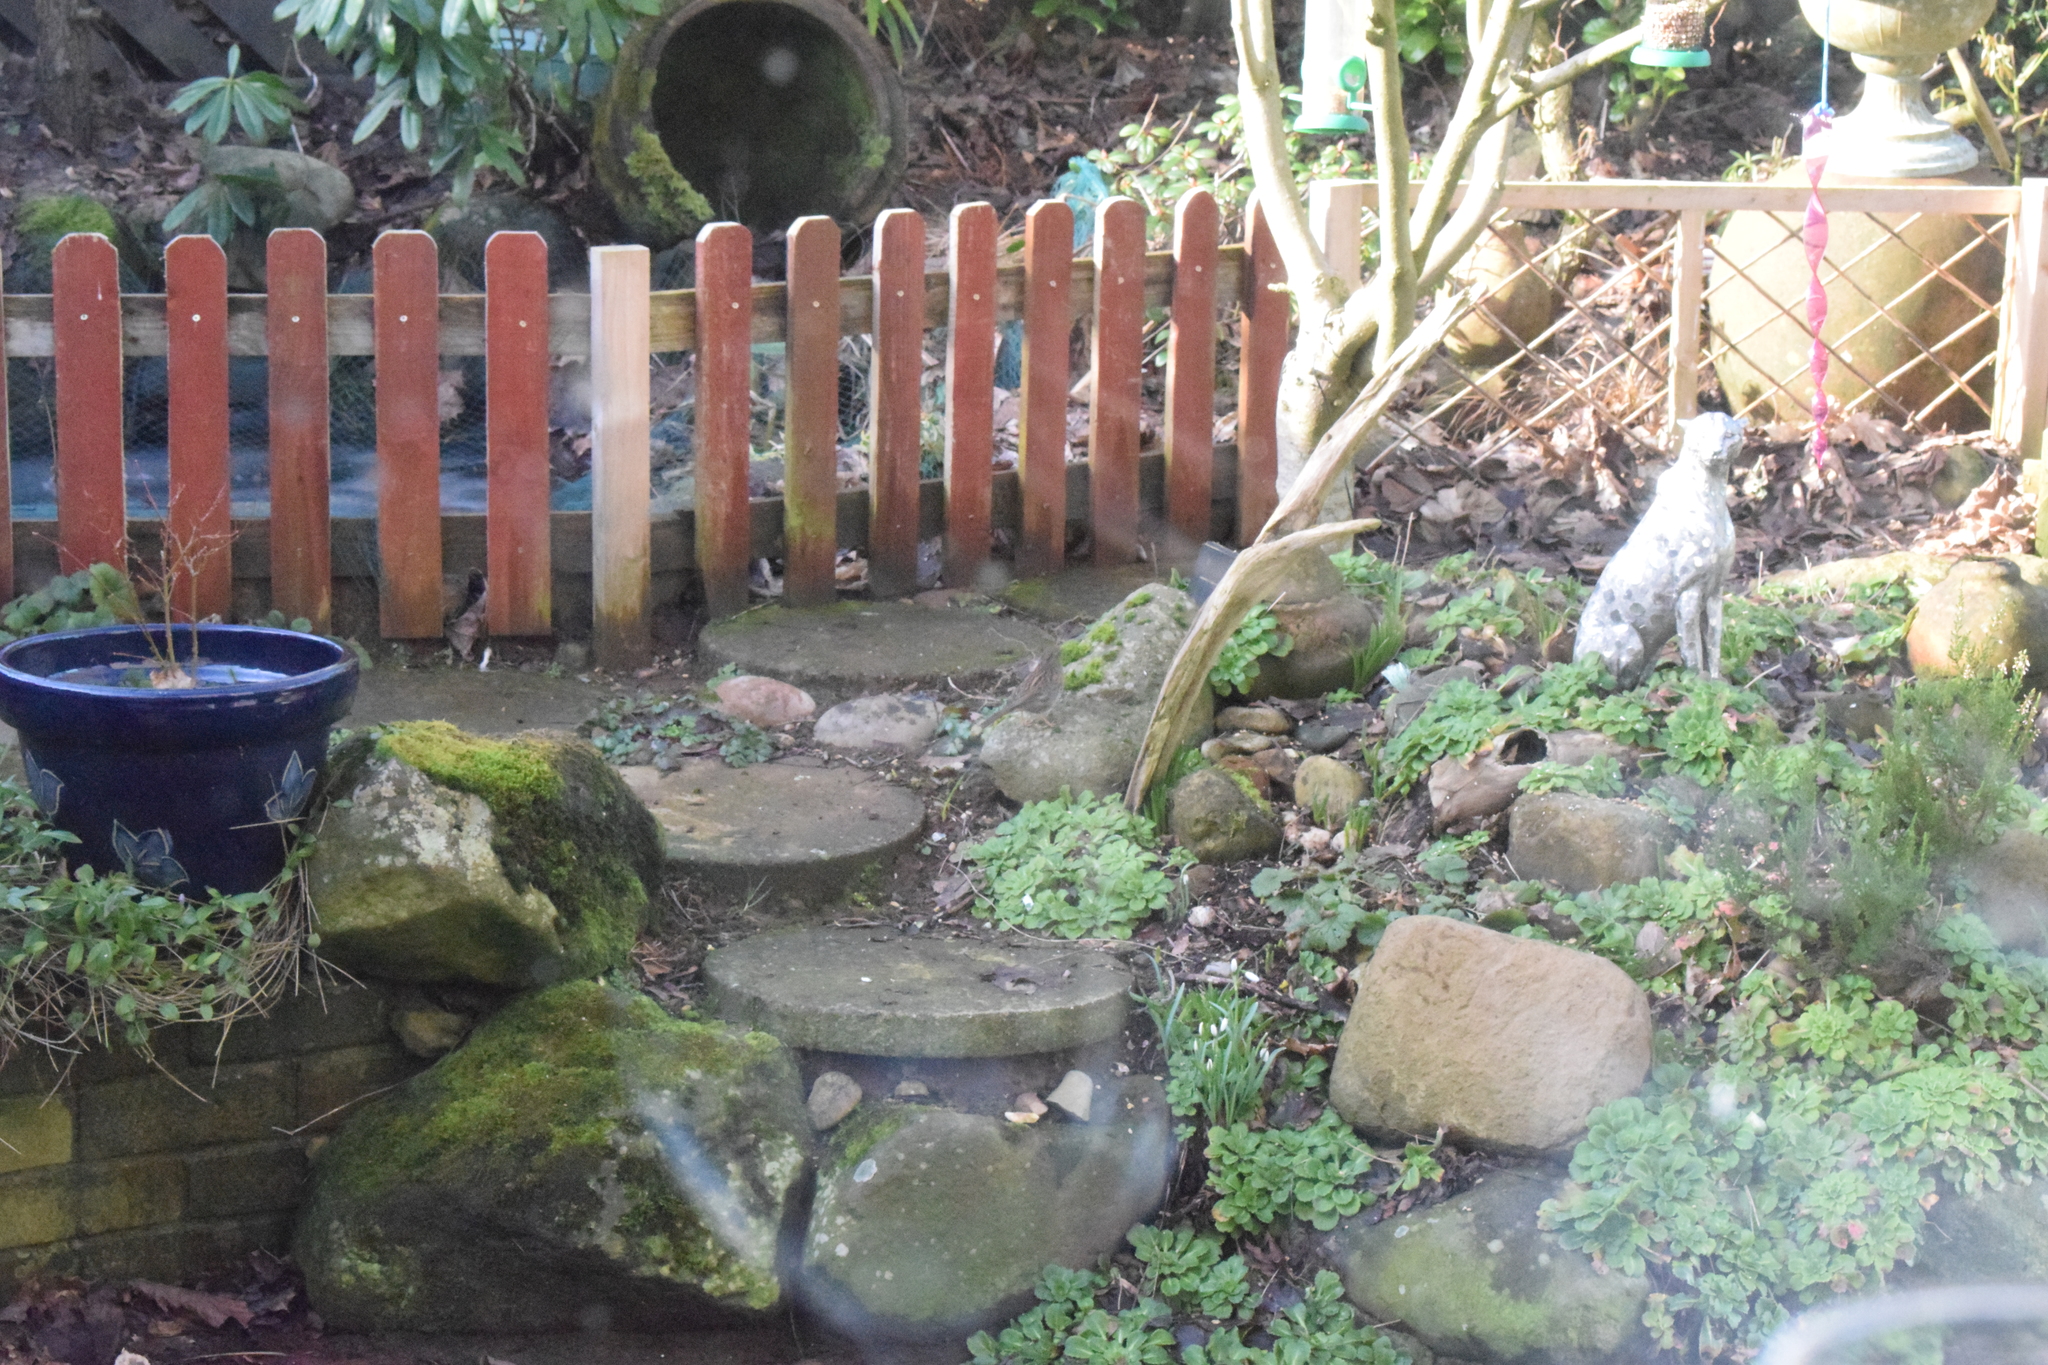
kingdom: Animalia
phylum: Chordata
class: Aves
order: Passeriformes
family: Prunellidae
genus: Prunella
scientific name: Prunella modularis
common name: Dunnock
